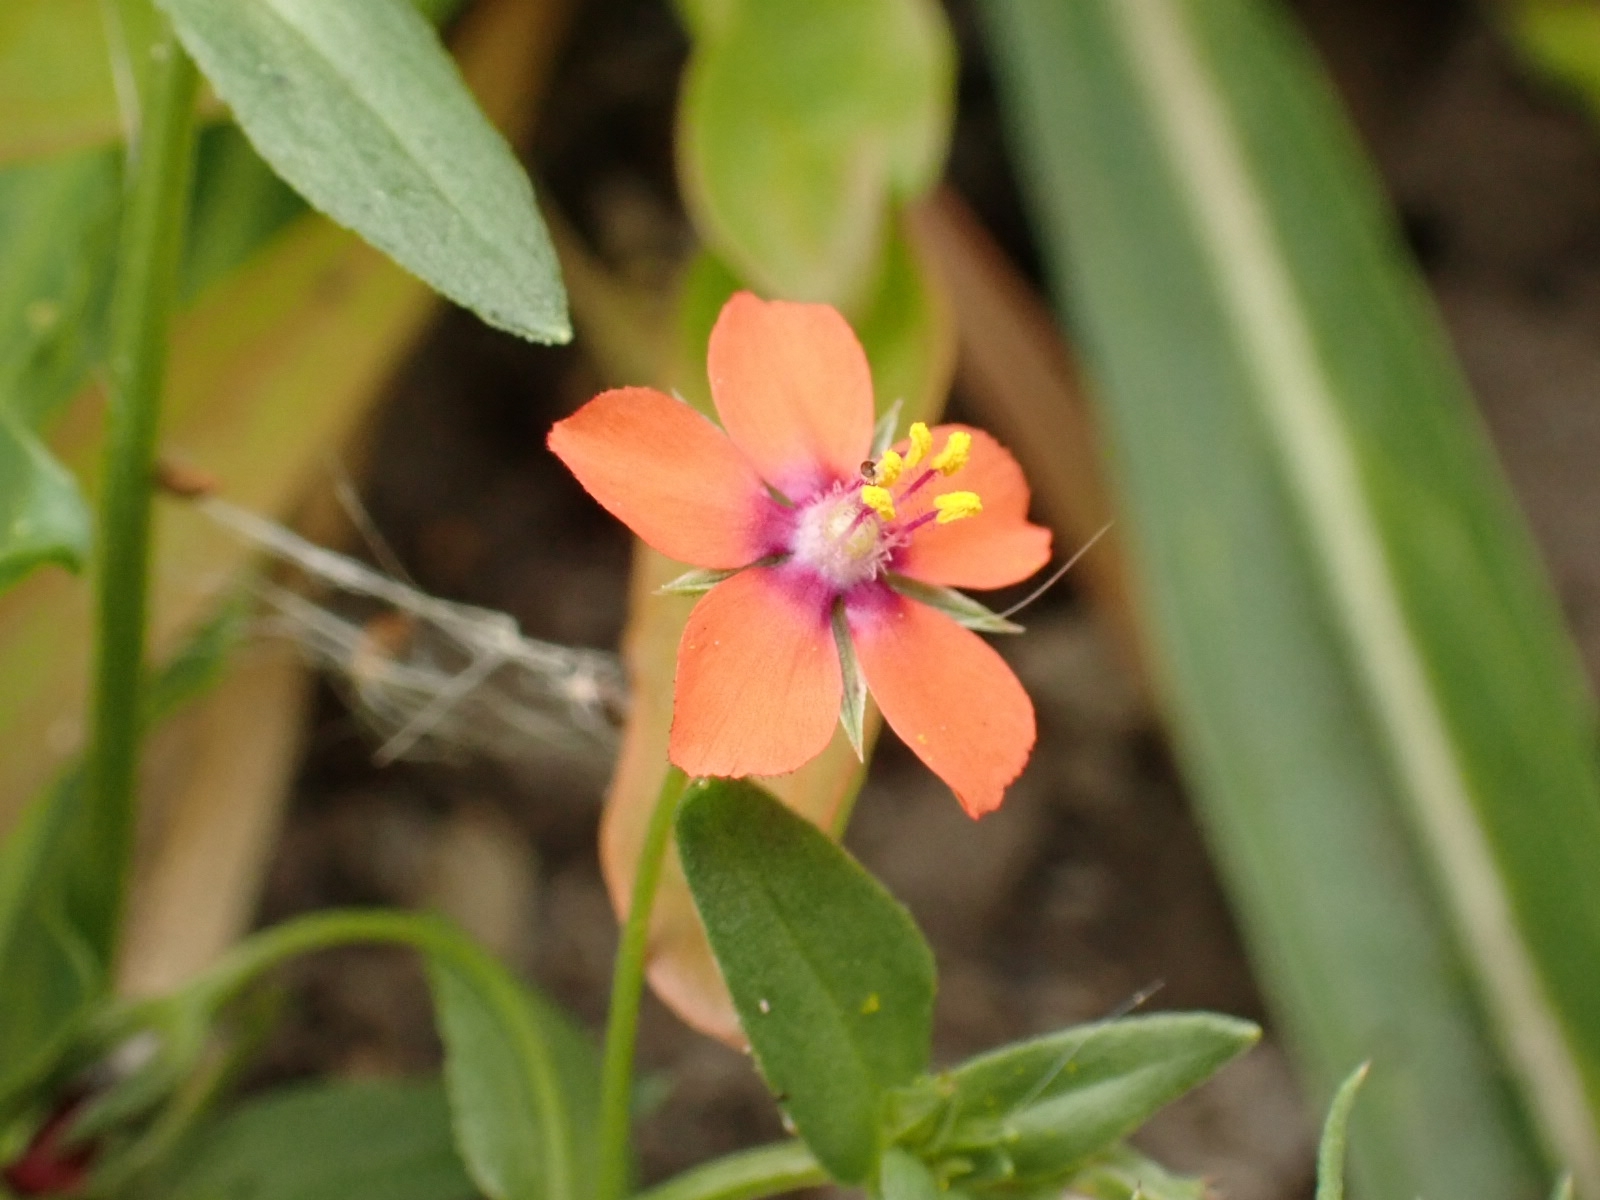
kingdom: Plantae
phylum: Tracheophyta
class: Magnoliopsida
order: Ericales
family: Primulaceae
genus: Lysimachia
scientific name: Lysimachia arvensis
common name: Scarlet pimpernel
